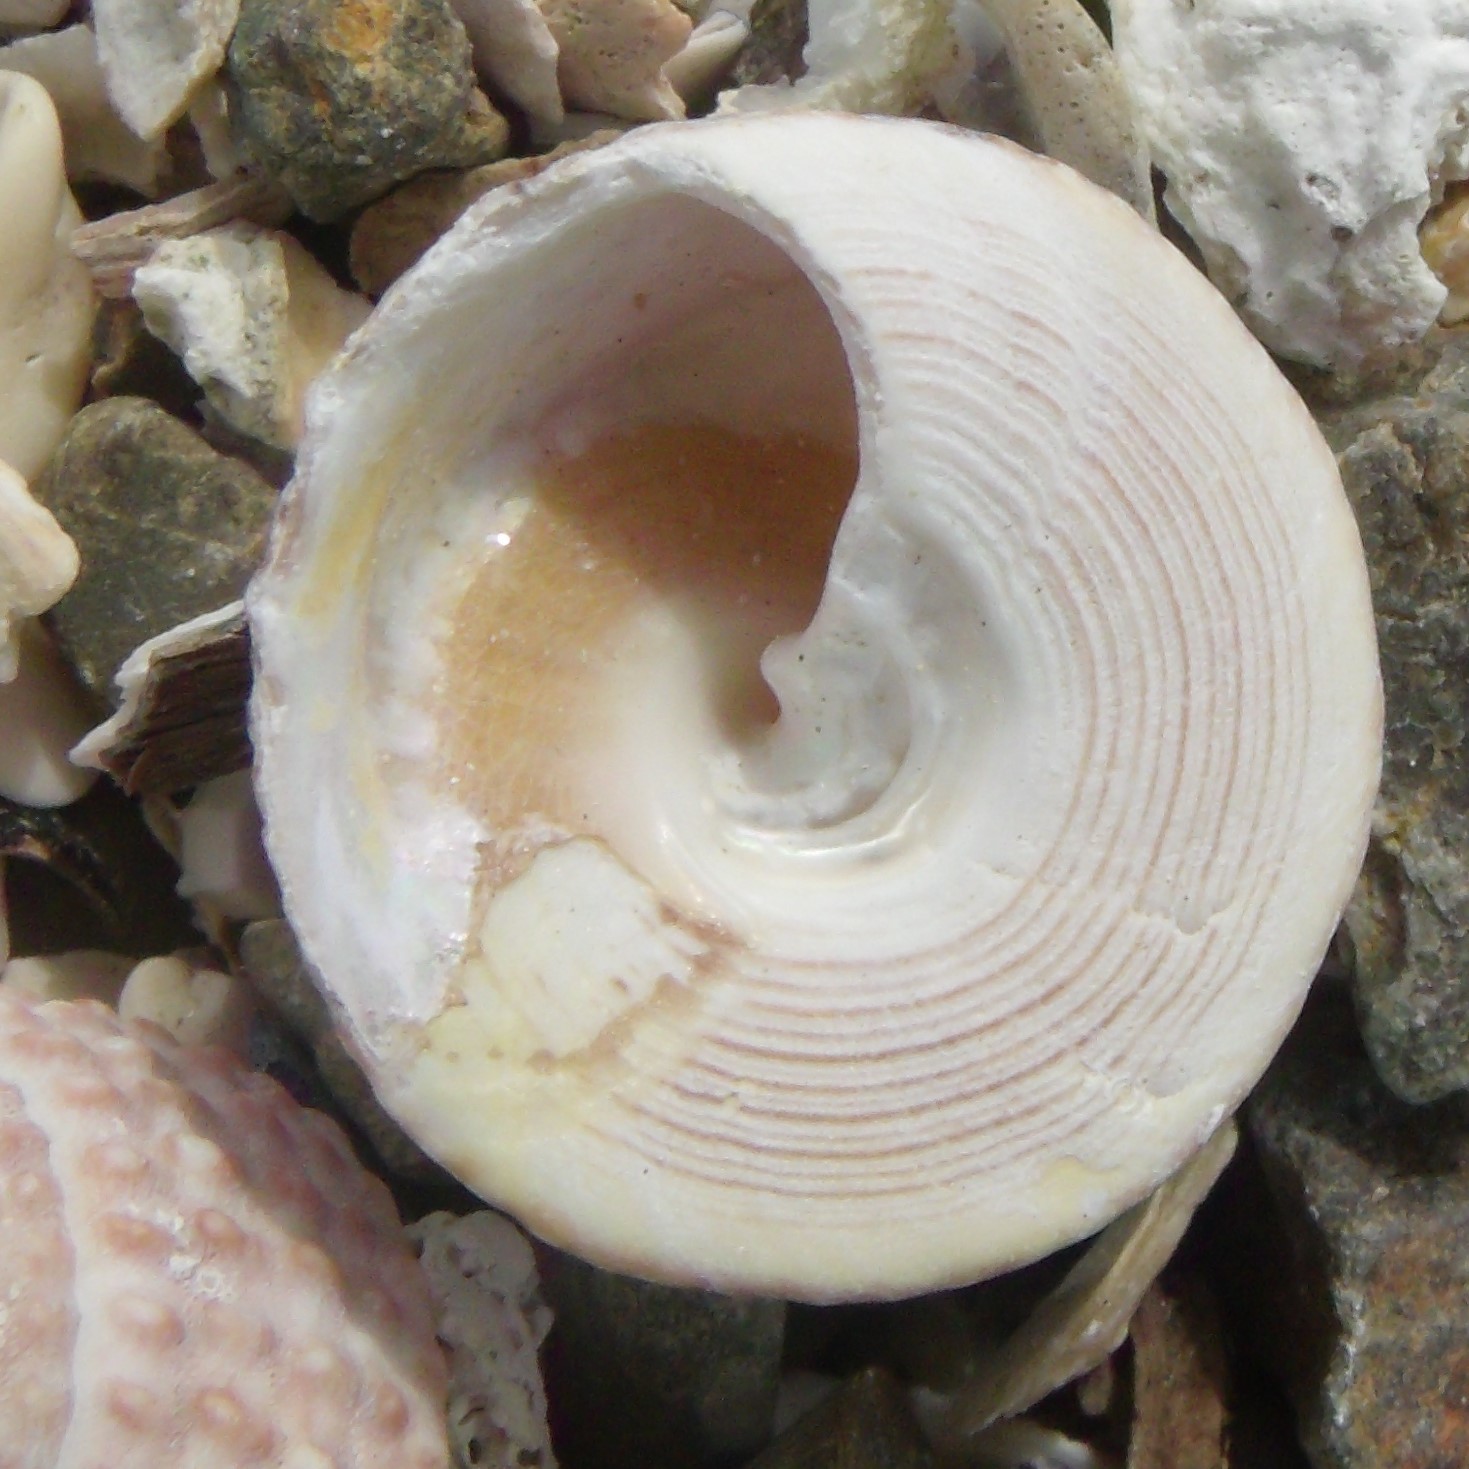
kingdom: Animalia
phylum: Mollusca
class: Gastropoda
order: Trochida
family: Trochidae
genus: Coelotrochus
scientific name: Coelotrochus viridis
